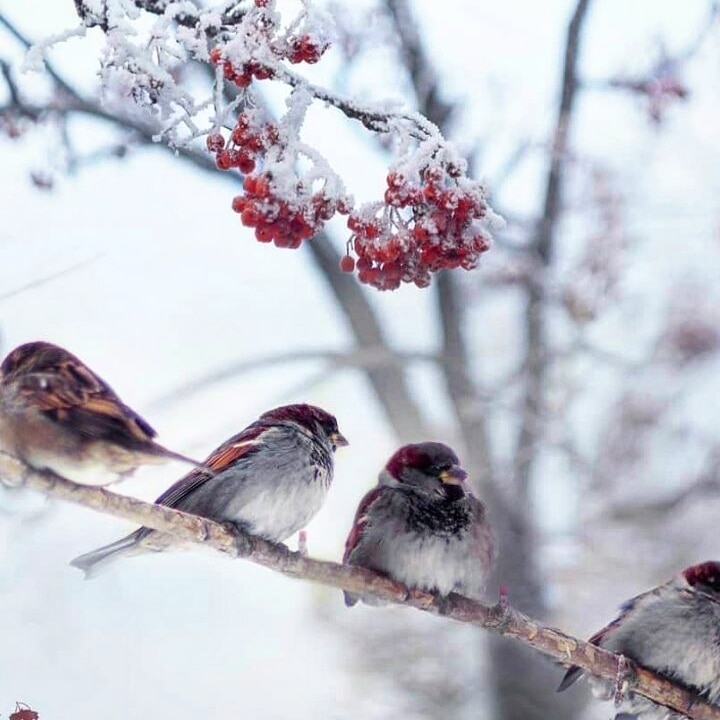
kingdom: Animalia
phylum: Chordata
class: Aves
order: Passeriformes
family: Passeridae
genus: Passer
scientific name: Passer domesticus
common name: House sparrow
